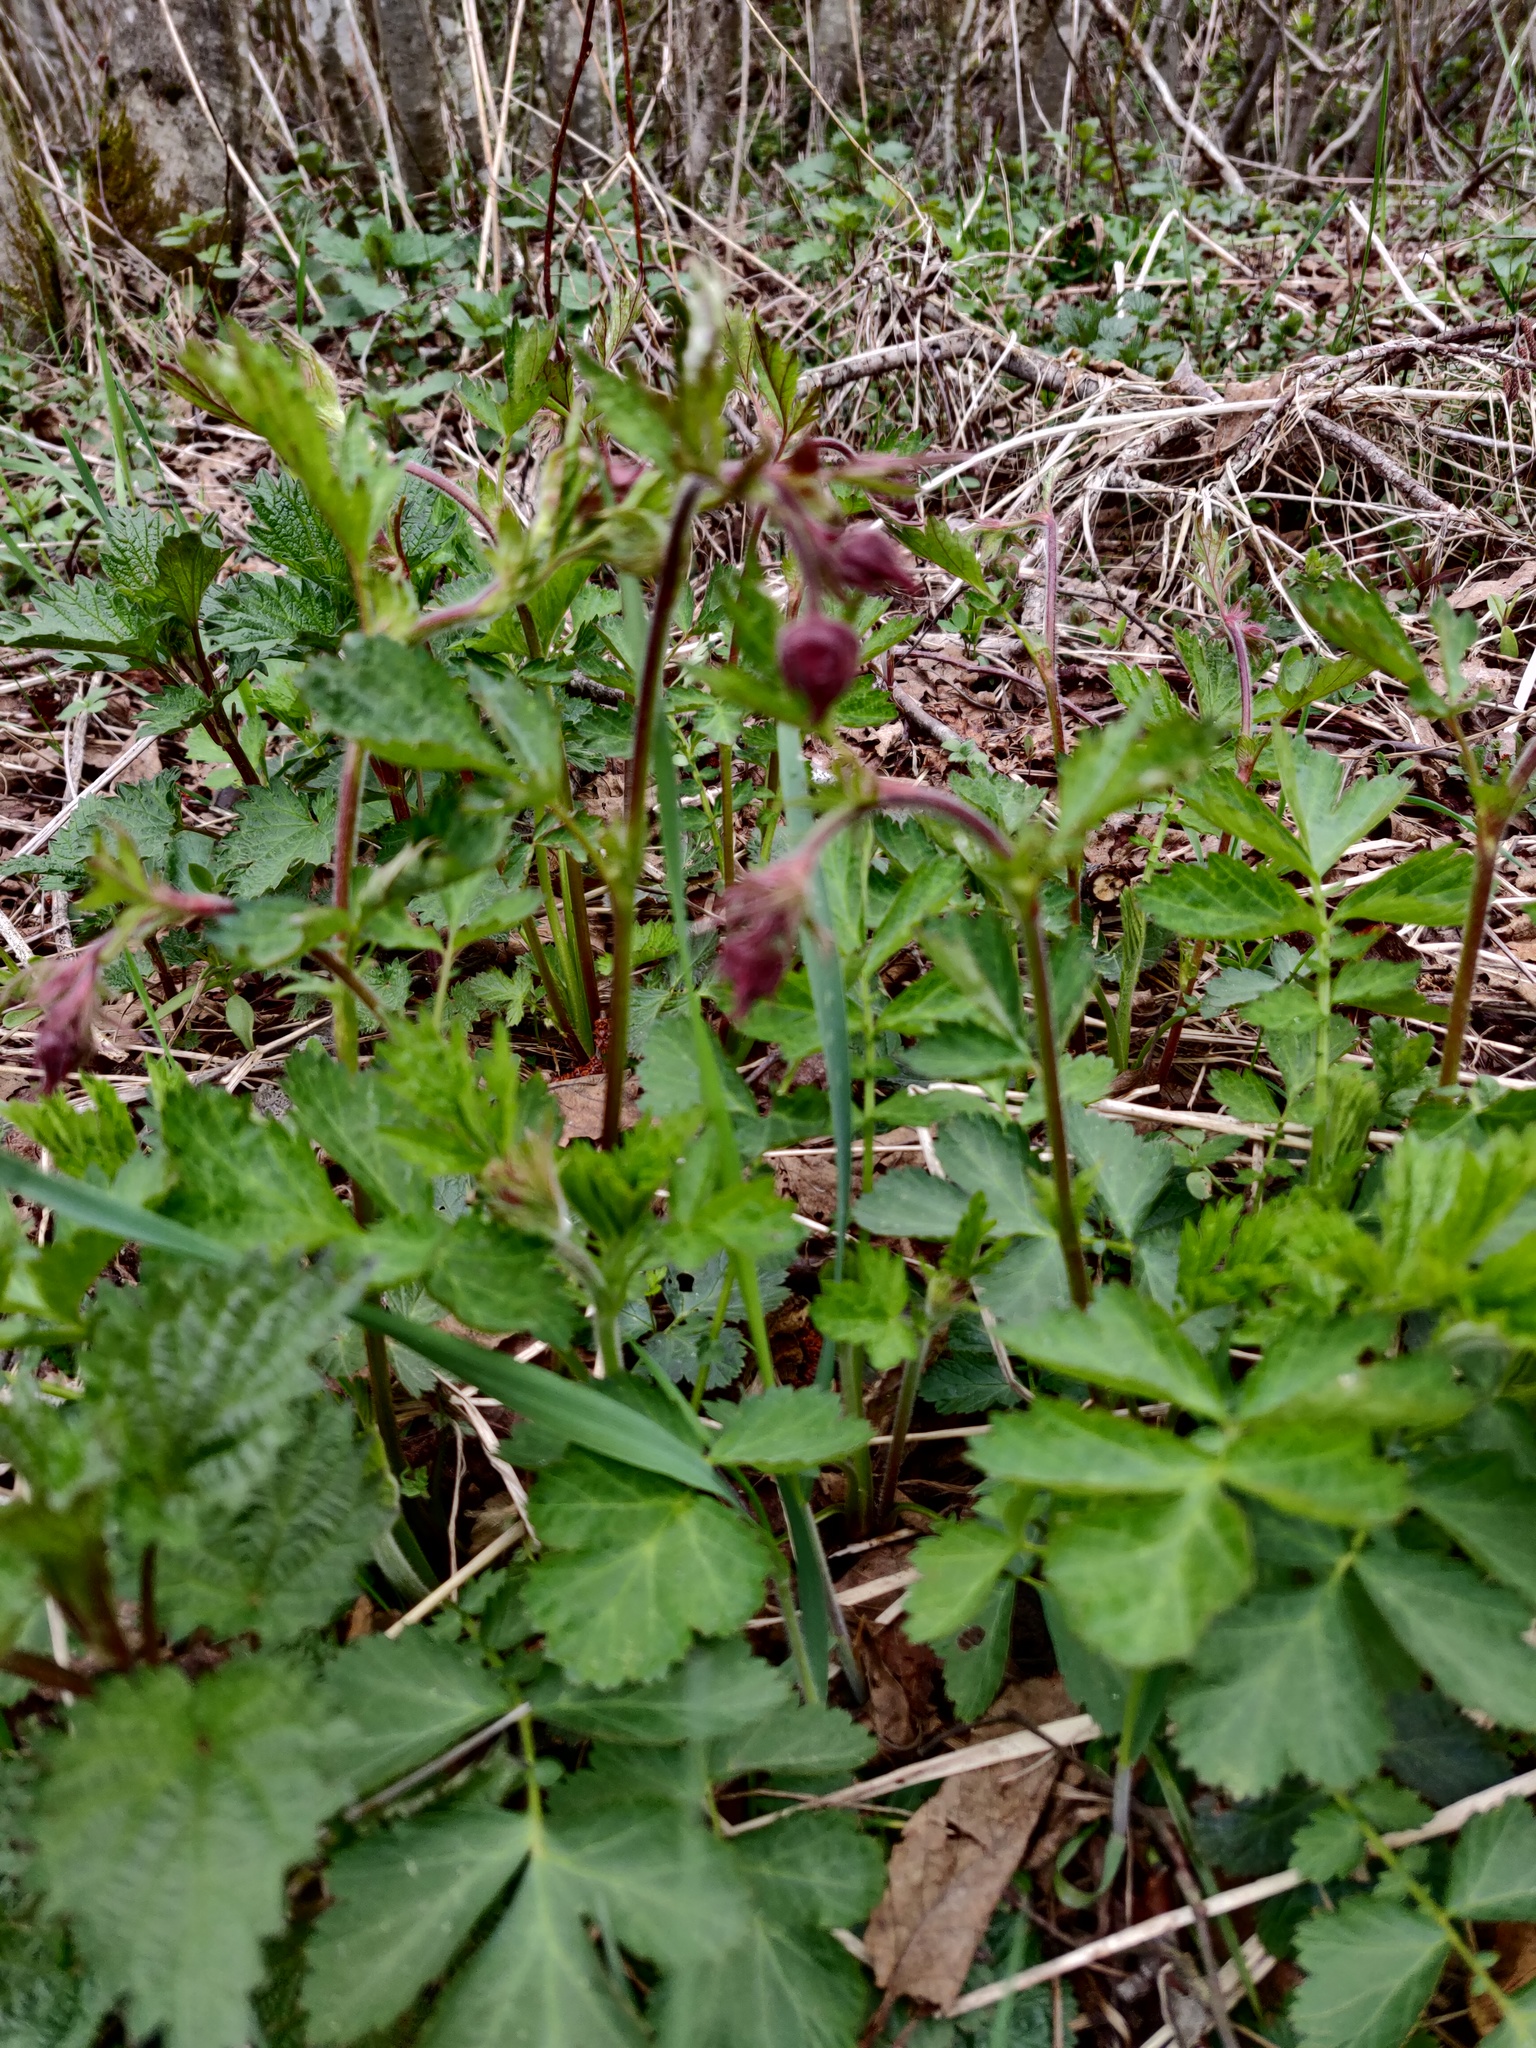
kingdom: Plantae
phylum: Tracheophyta
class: Magnoliopsida
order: Rosales
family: Rosaceae
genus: Geum
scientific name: Geum rivale
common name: Water avens
